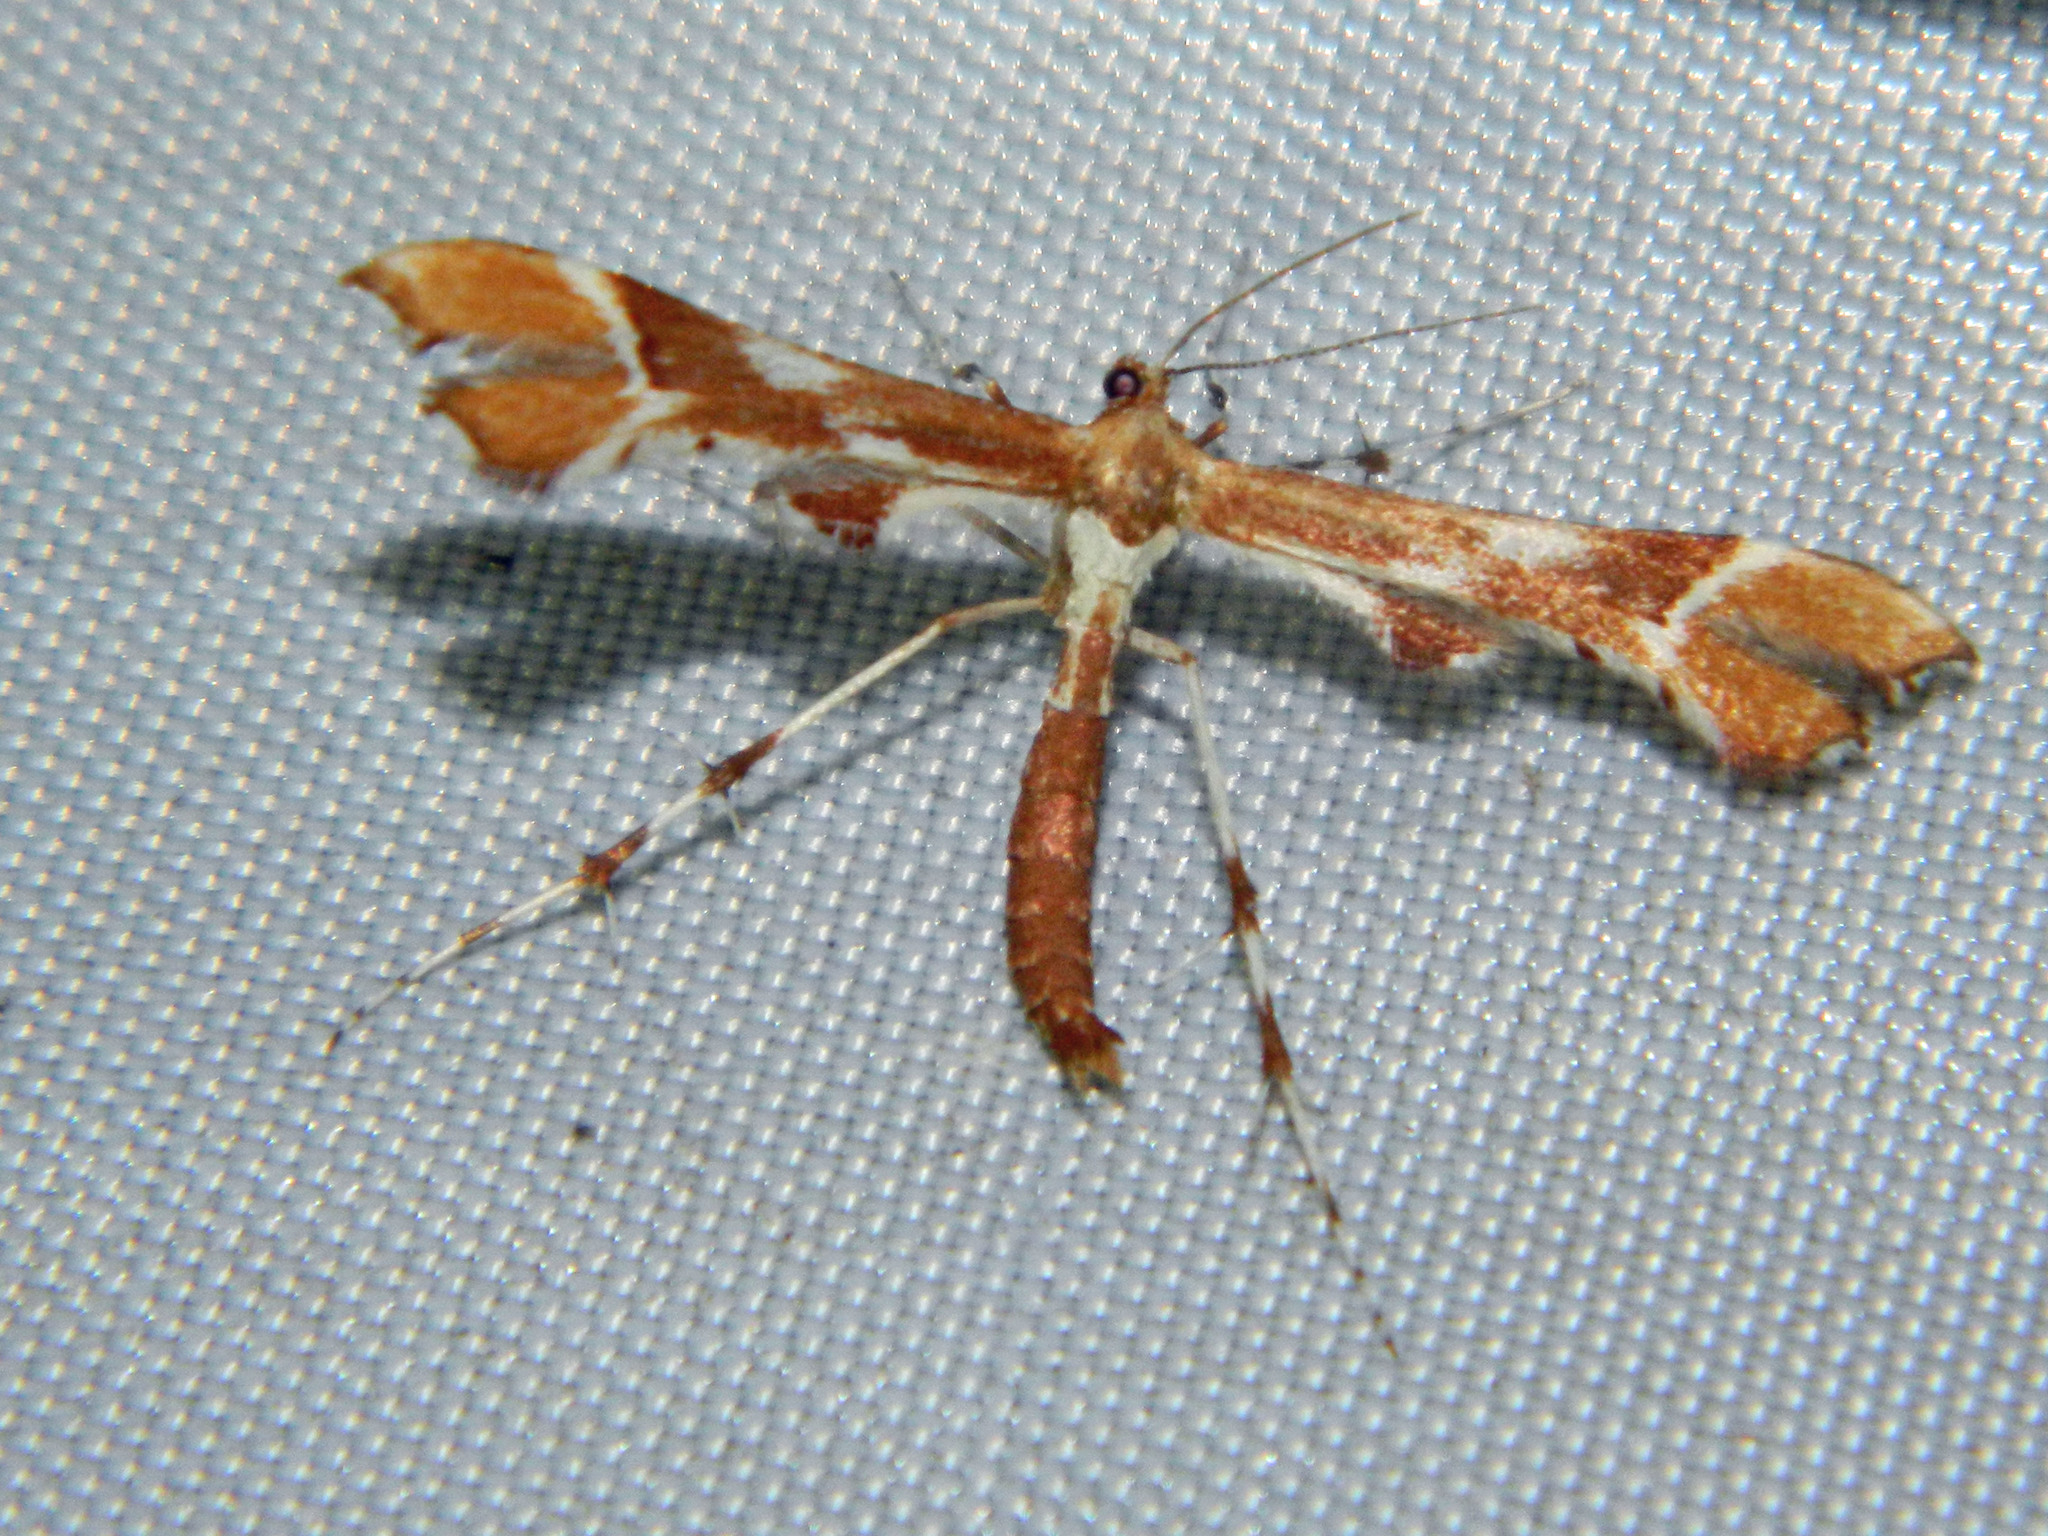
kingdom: Animalia
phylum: Arthropoda
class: Insecta
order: Lepidoptera
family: Pterophoridae
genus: Cnaemidophorus
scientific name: Cnaemidophorus rhododactyla
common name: Rose plume
